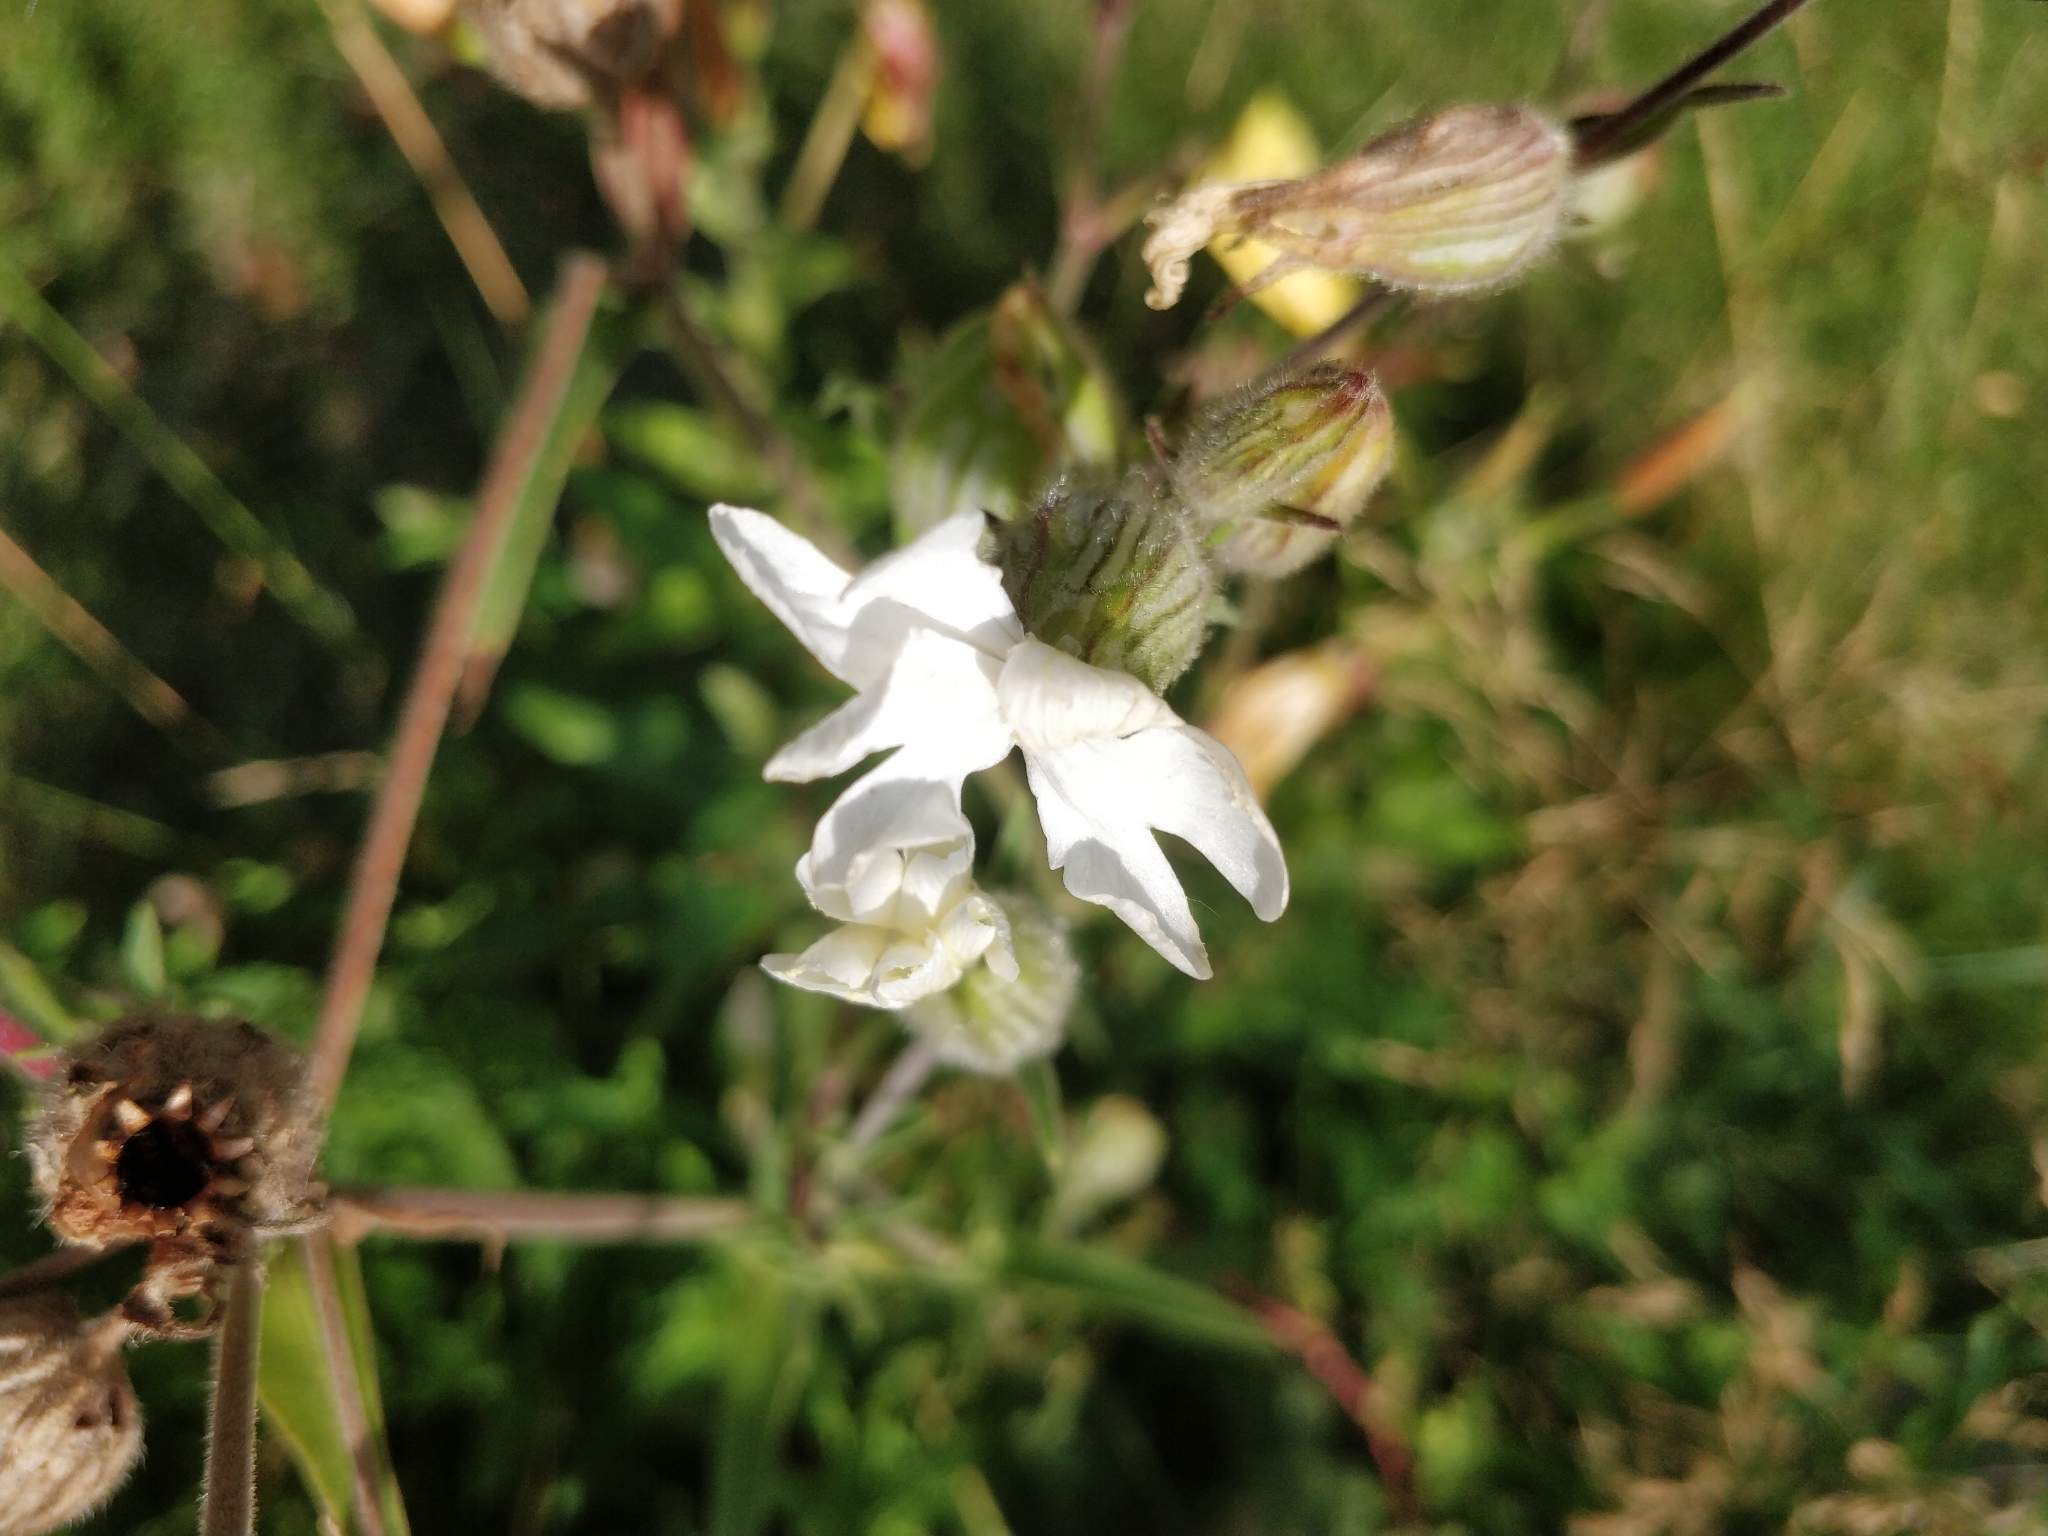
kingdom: Plantae
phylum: Tracheophyta
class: Magnoliopsida
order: Caryophyllales
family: Caryophyllaceae
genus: Silene
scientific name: Silene latifolia
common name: White campion
